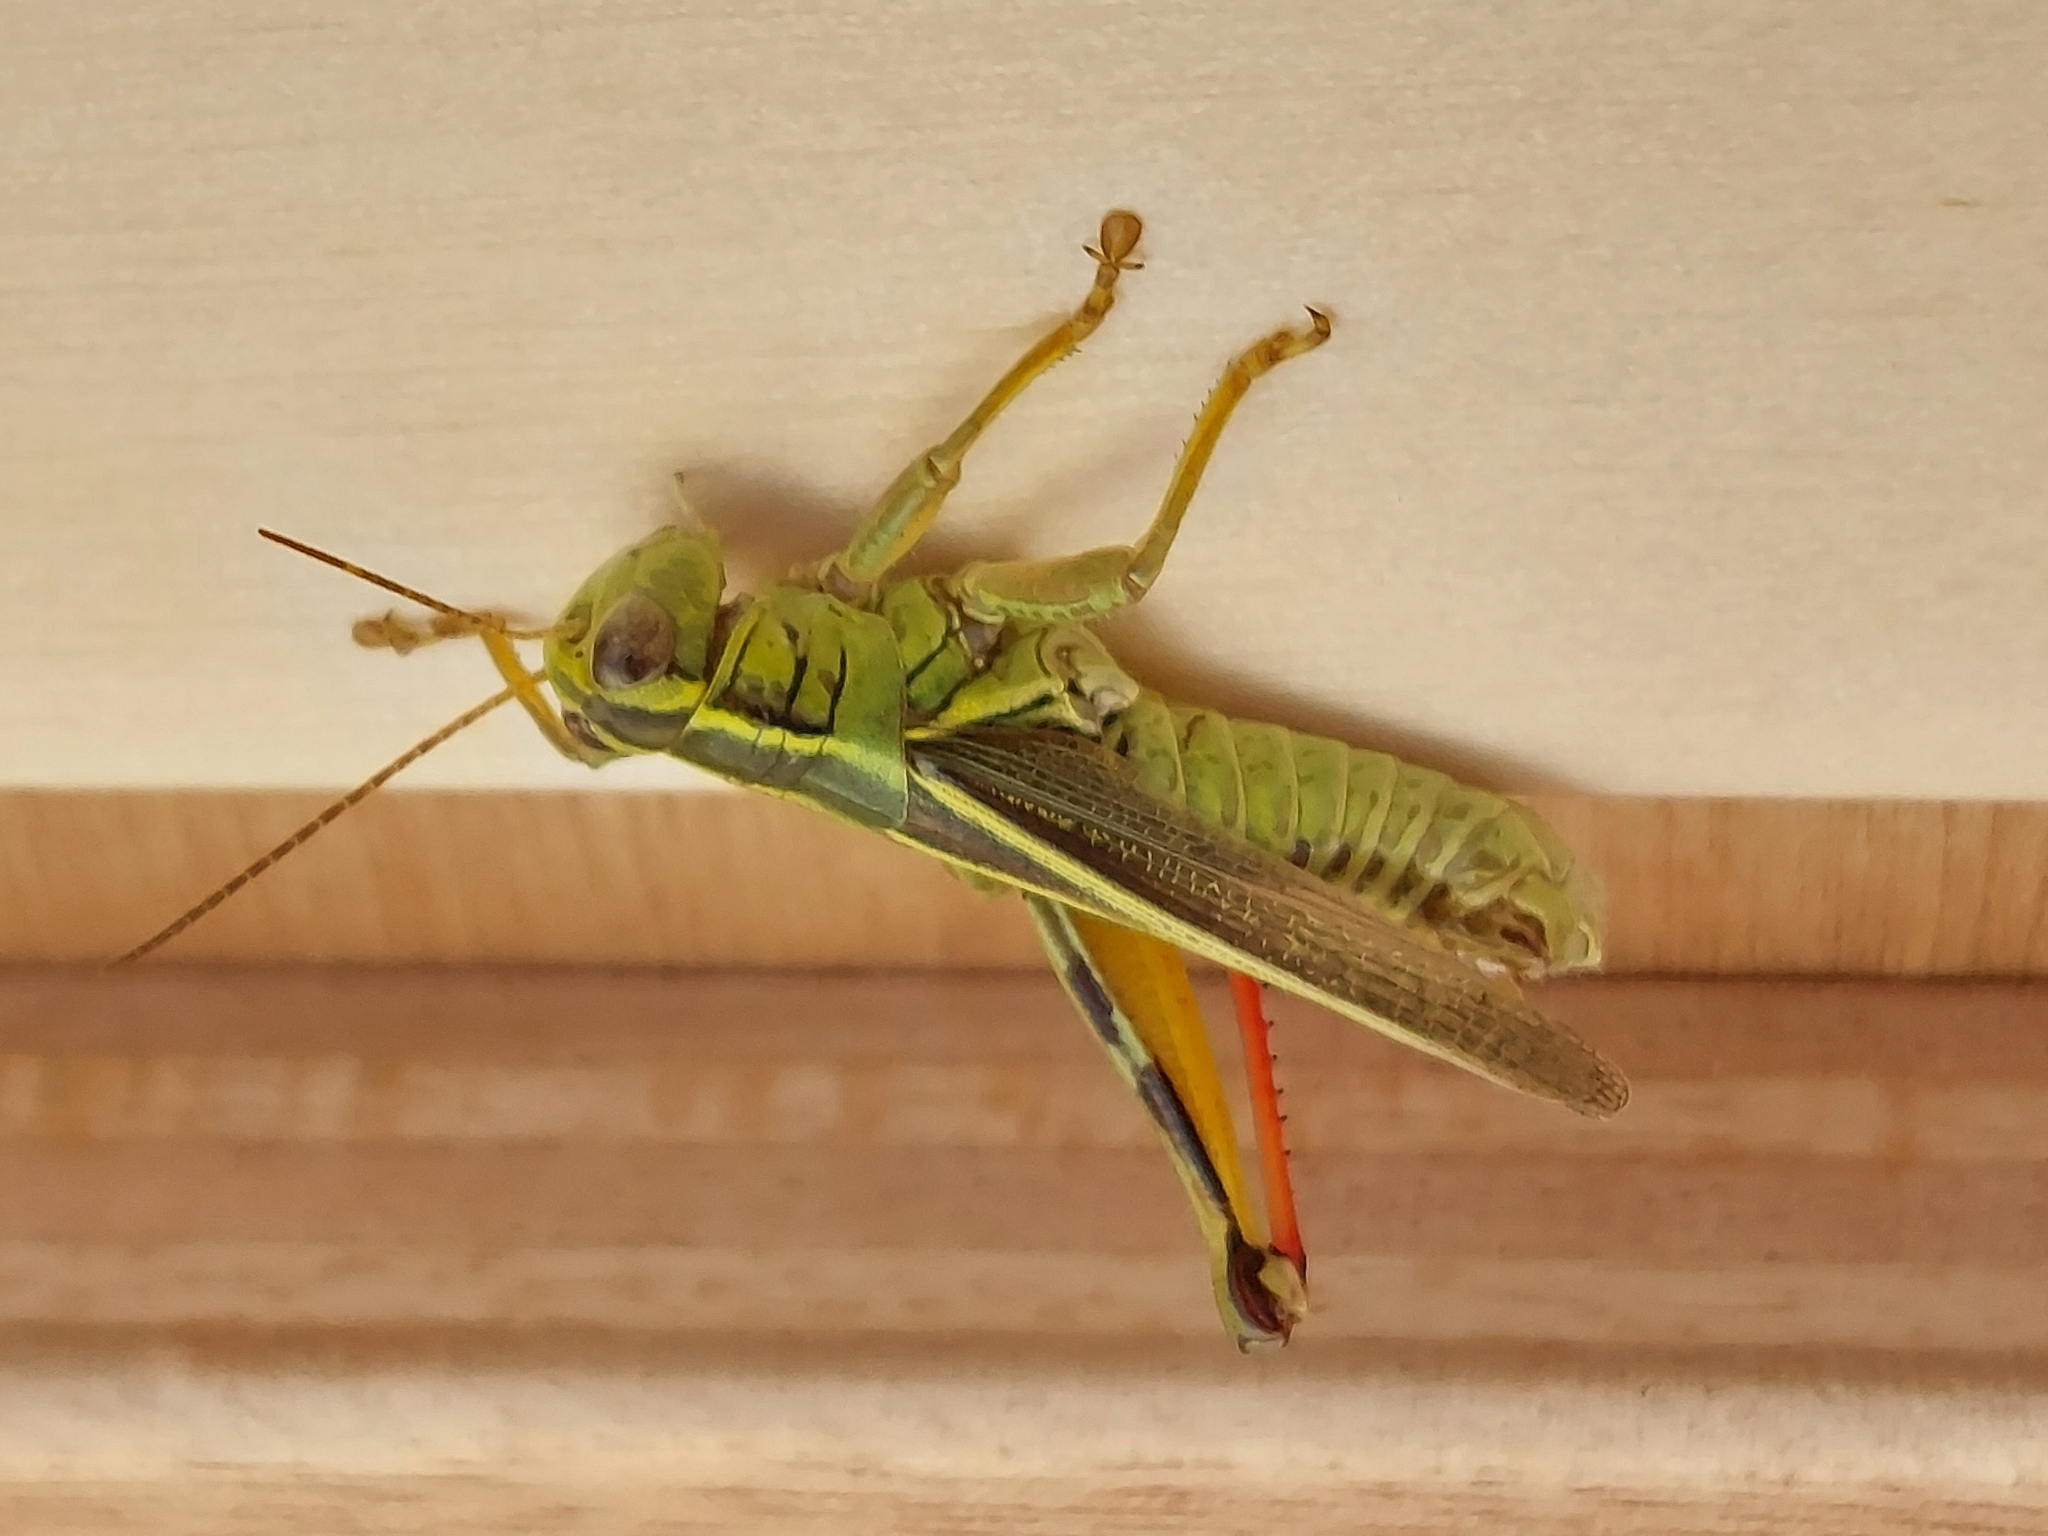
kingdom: Animalia
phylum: Arthropoda
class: Insecta
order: Orthoptera
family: Acrididae
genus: Melanoplus
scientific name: Melanoplus bivittatus
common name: Two-striped grasshopper
